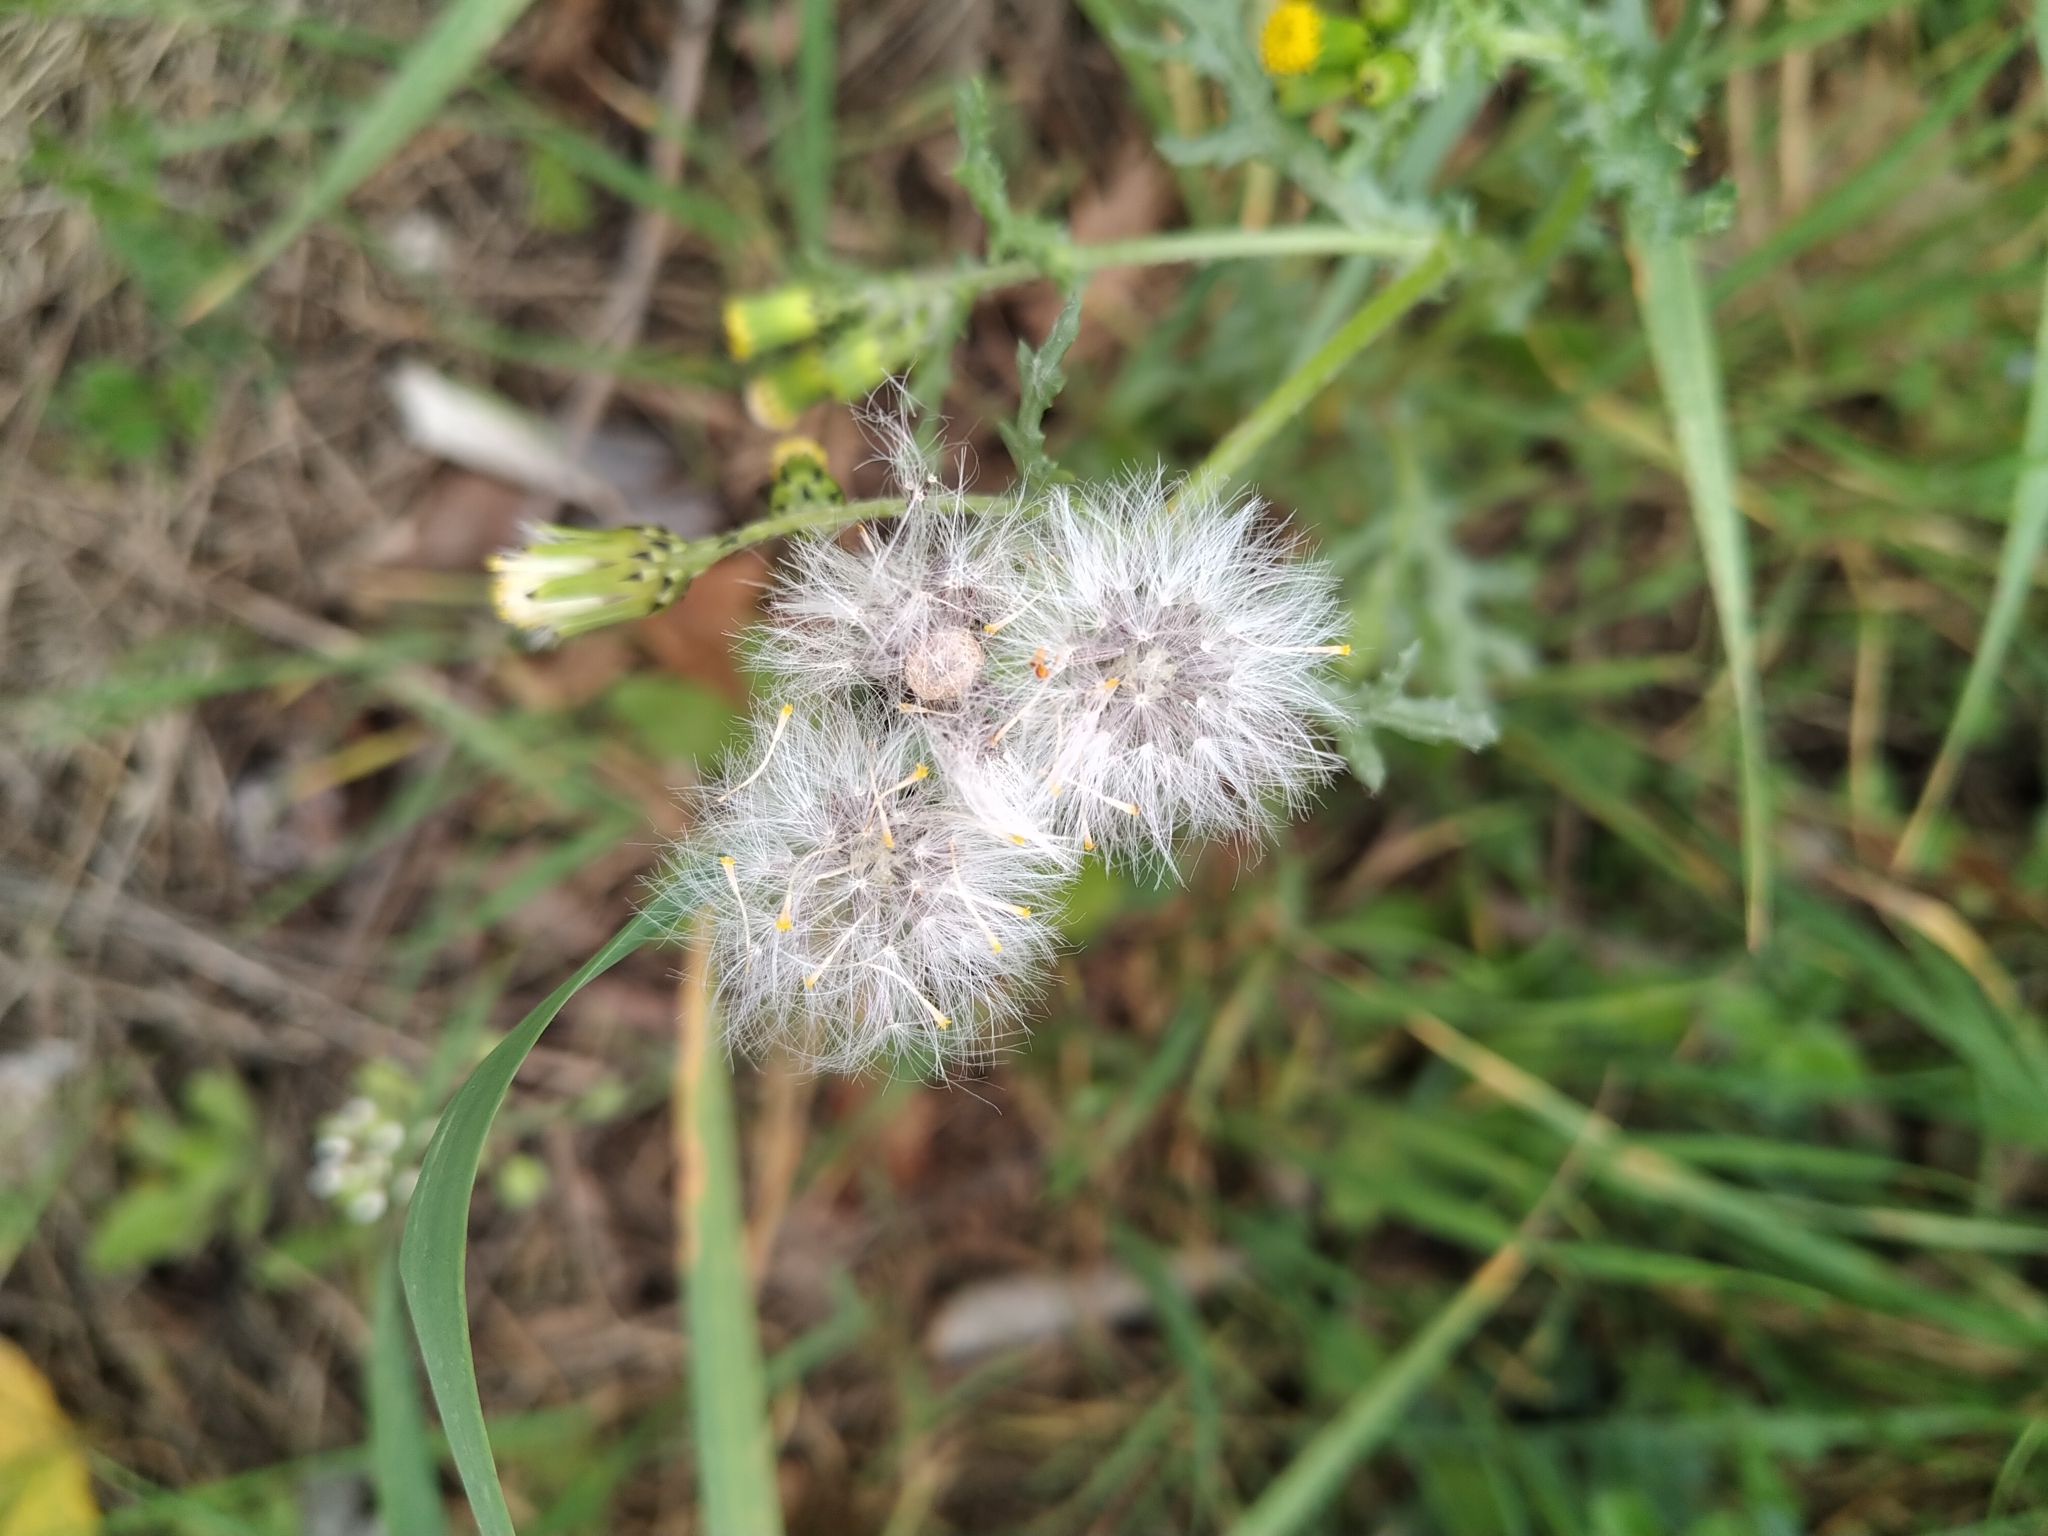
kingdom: Plantae
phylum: Tracheophyta
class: Magnoliopsida
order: Asterales
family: Asteraceae
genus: Senecio
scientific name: Senecio vulgaris
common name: Old-man-in-the-spring
